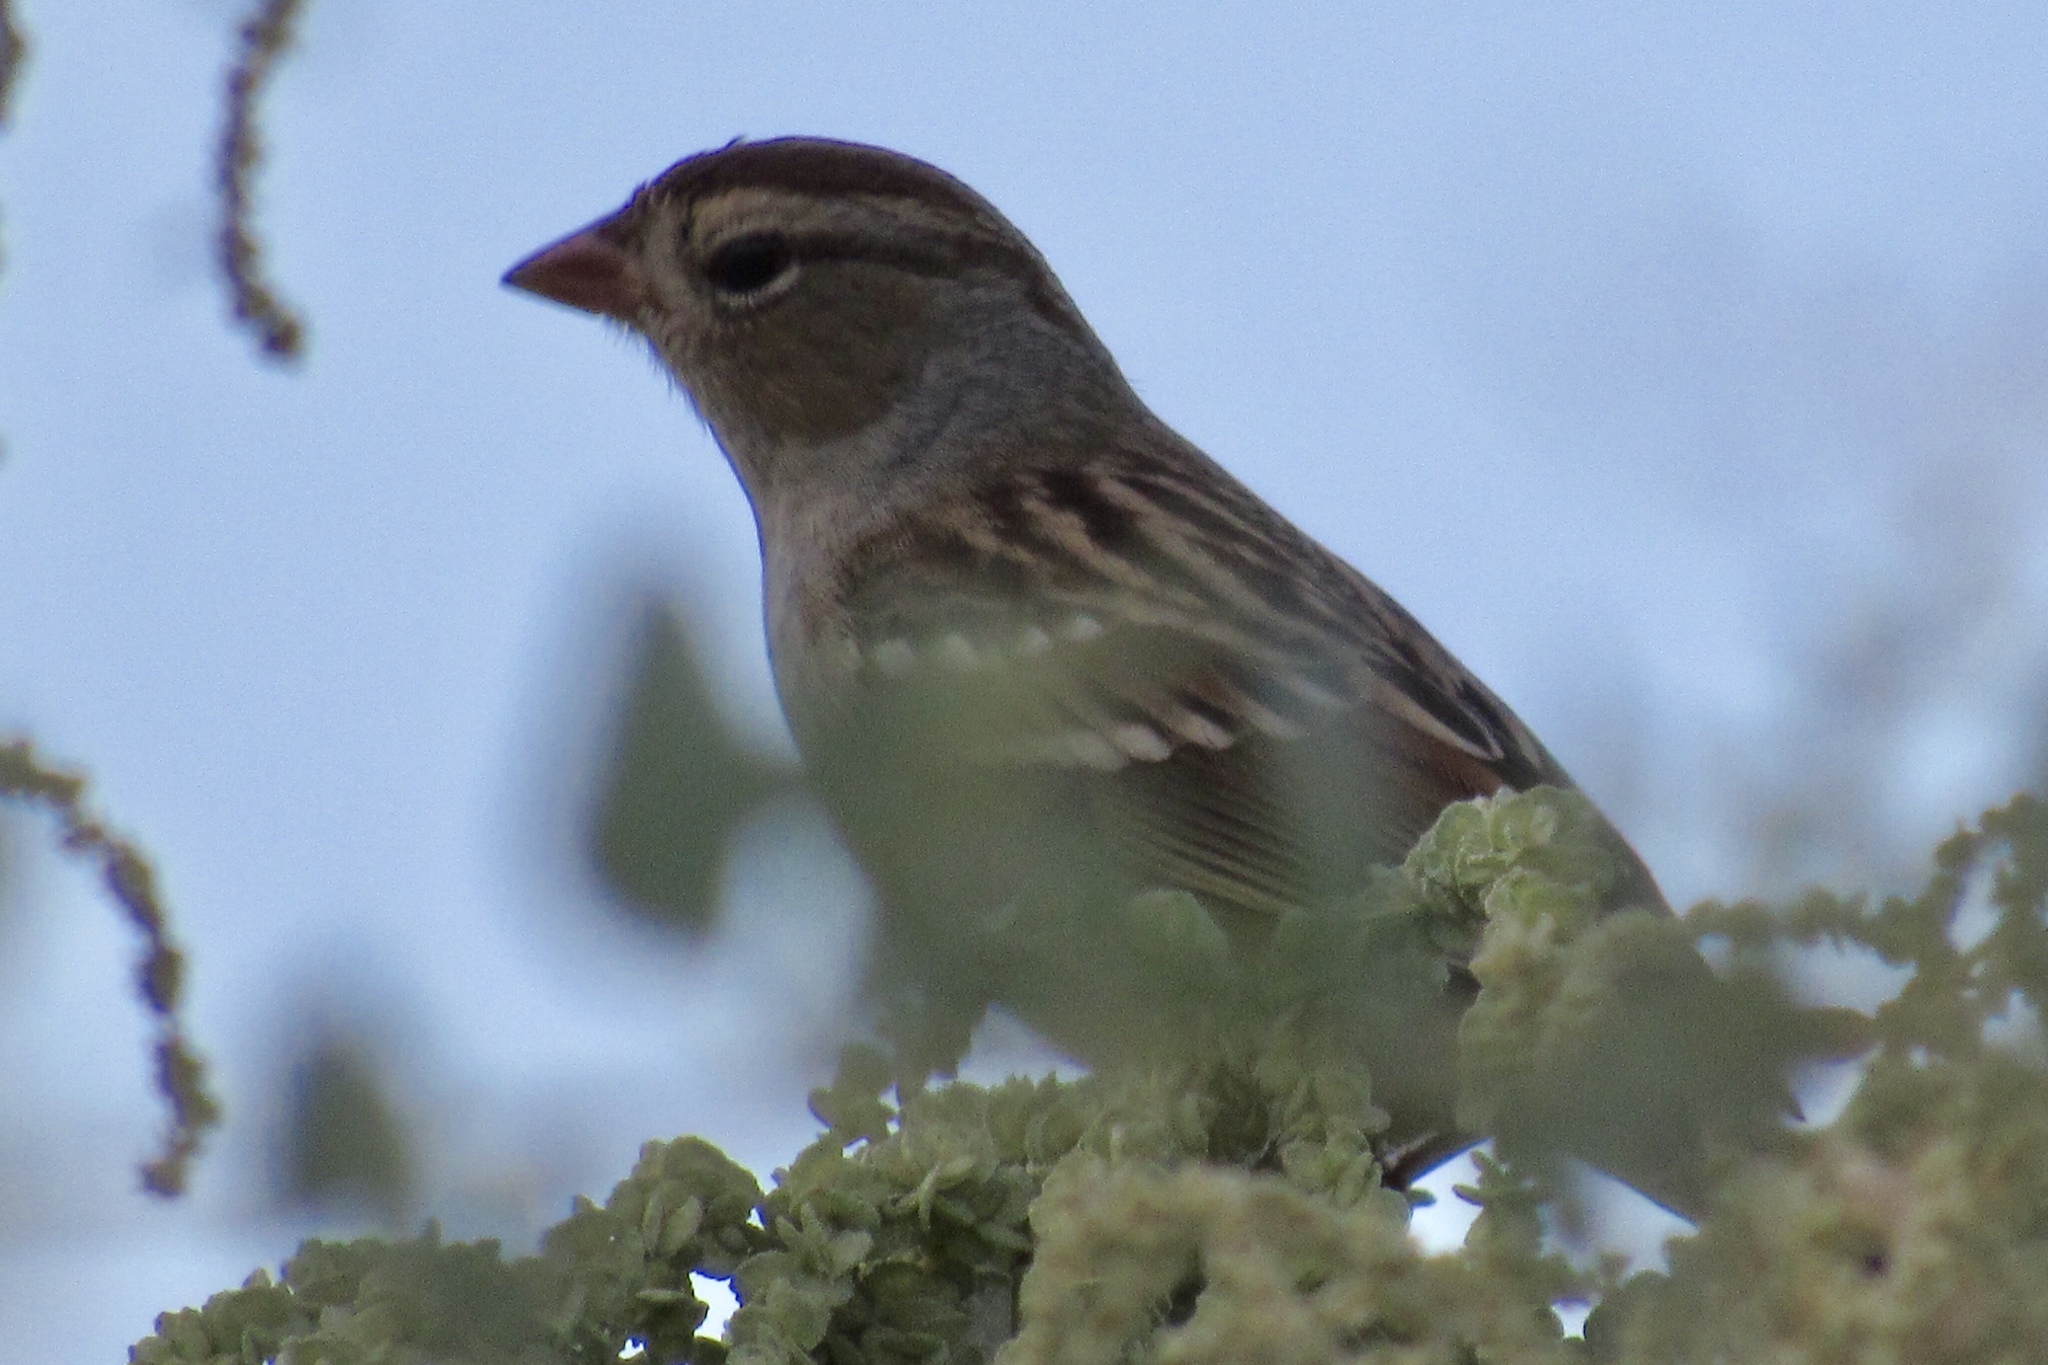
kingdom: Animalia
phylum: Chordata
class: Aves
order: Passeriformes
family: Passerellidae
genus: Zonotrichia
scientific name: Zonotrichia leucophrys
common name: White-crowned sparrow
